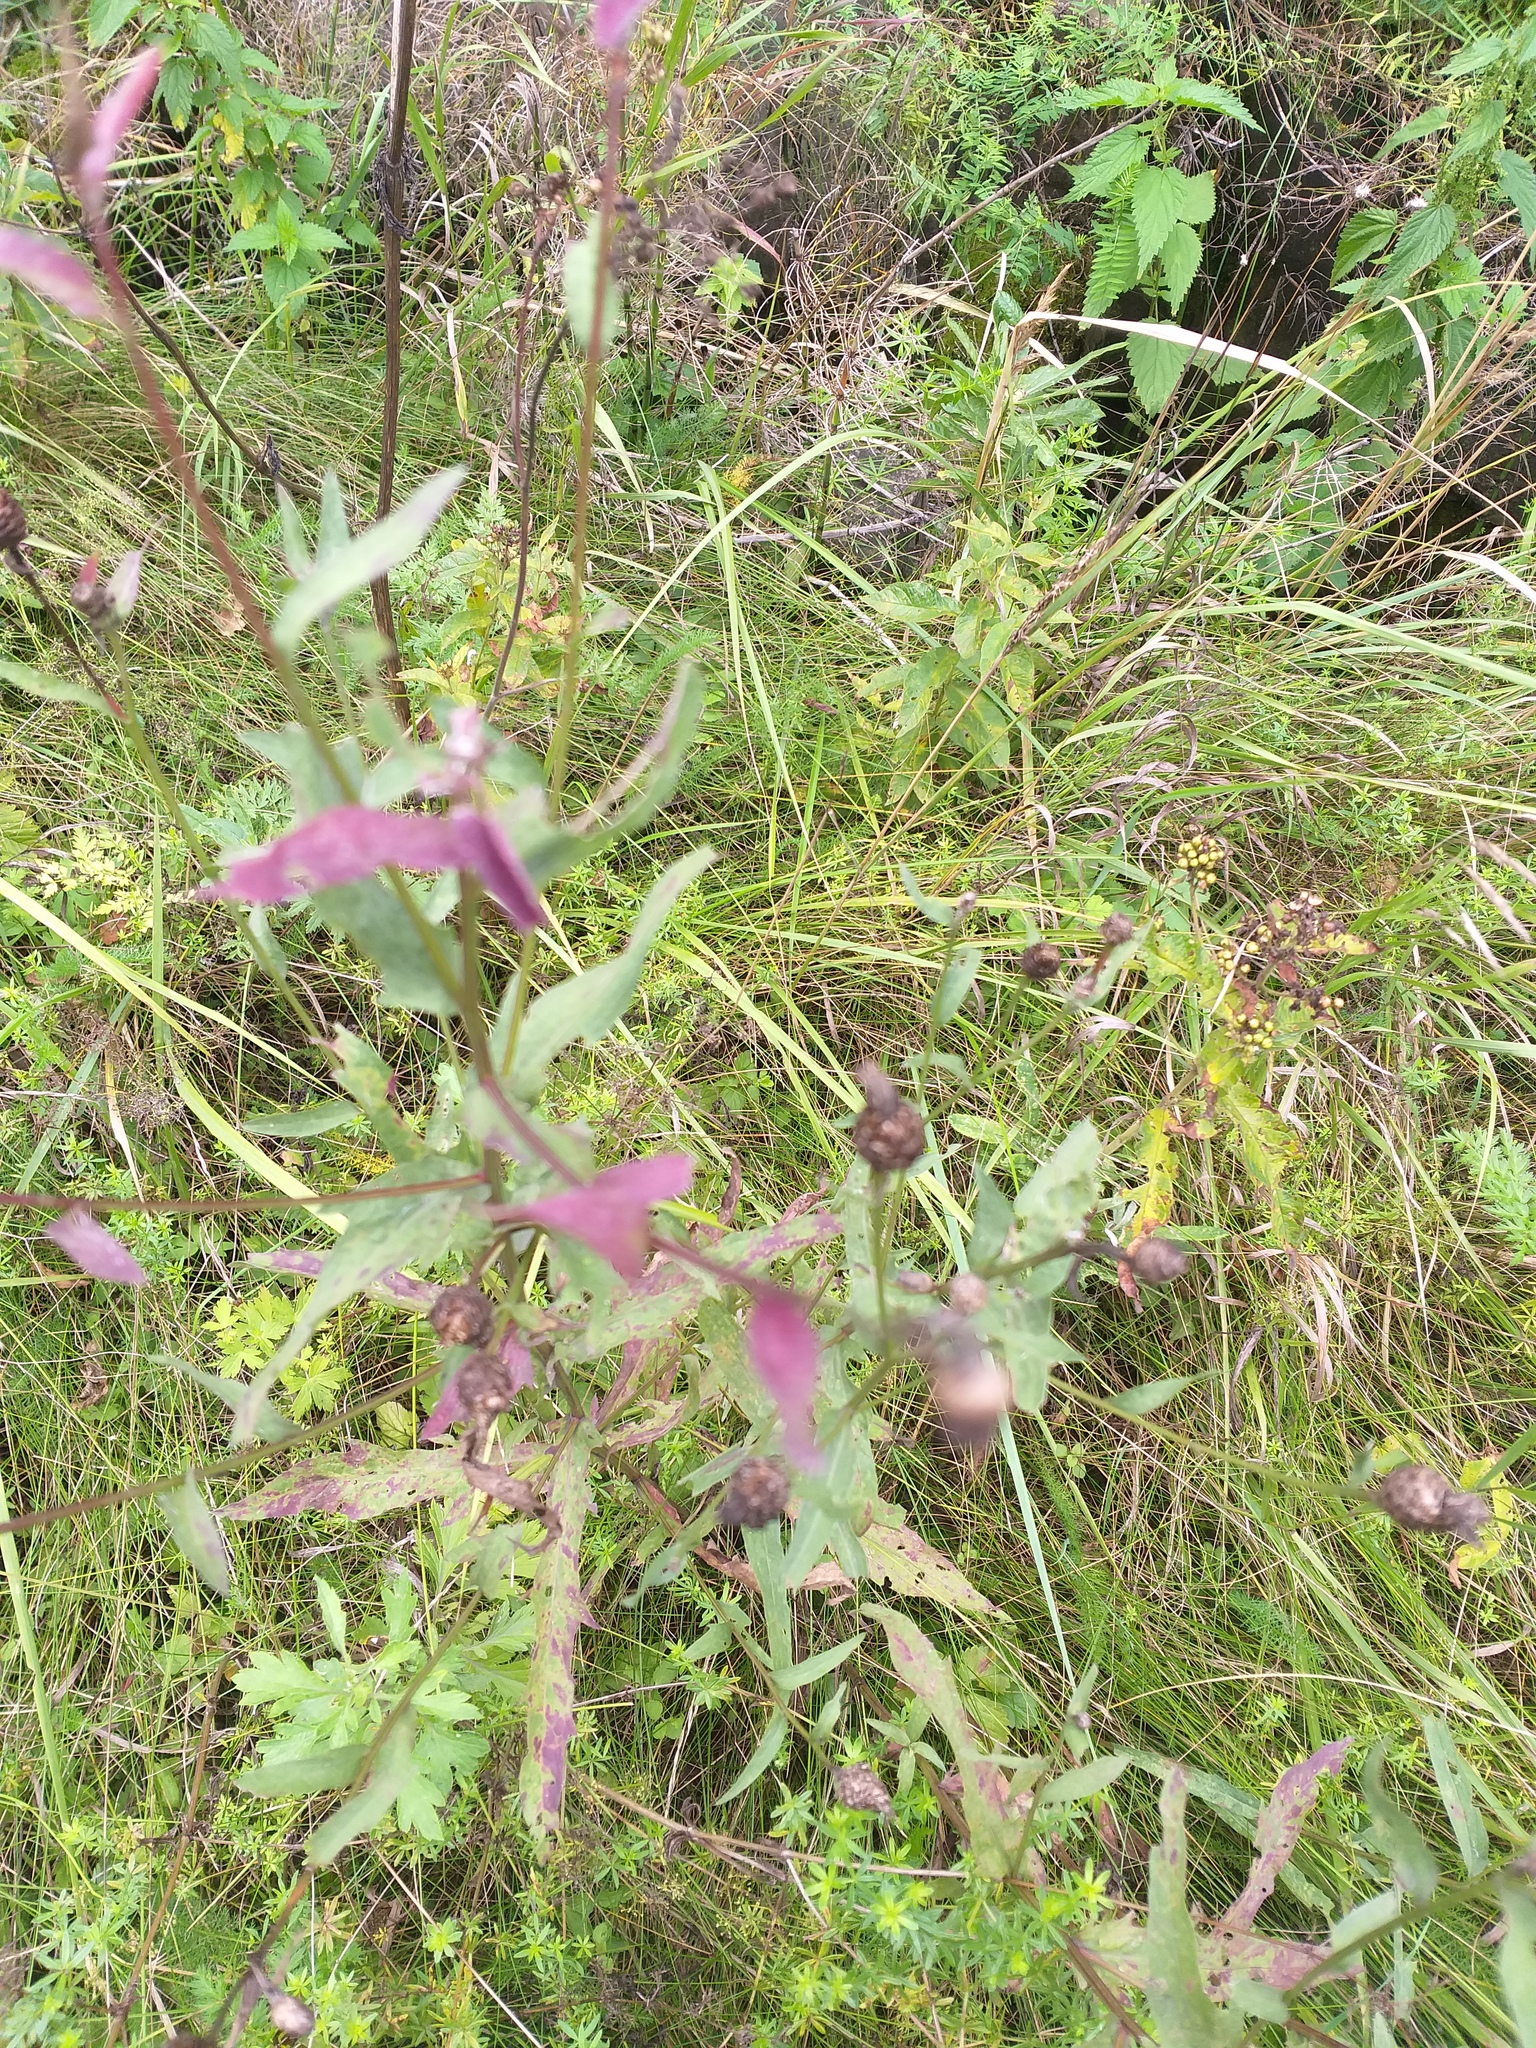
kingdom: Plantae
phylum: Tracheophyta
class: Magnoliopsida
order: Asterales
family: Asteraceae
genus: Centaurea
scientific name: Centaurea jacea
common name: Brown knapweed
